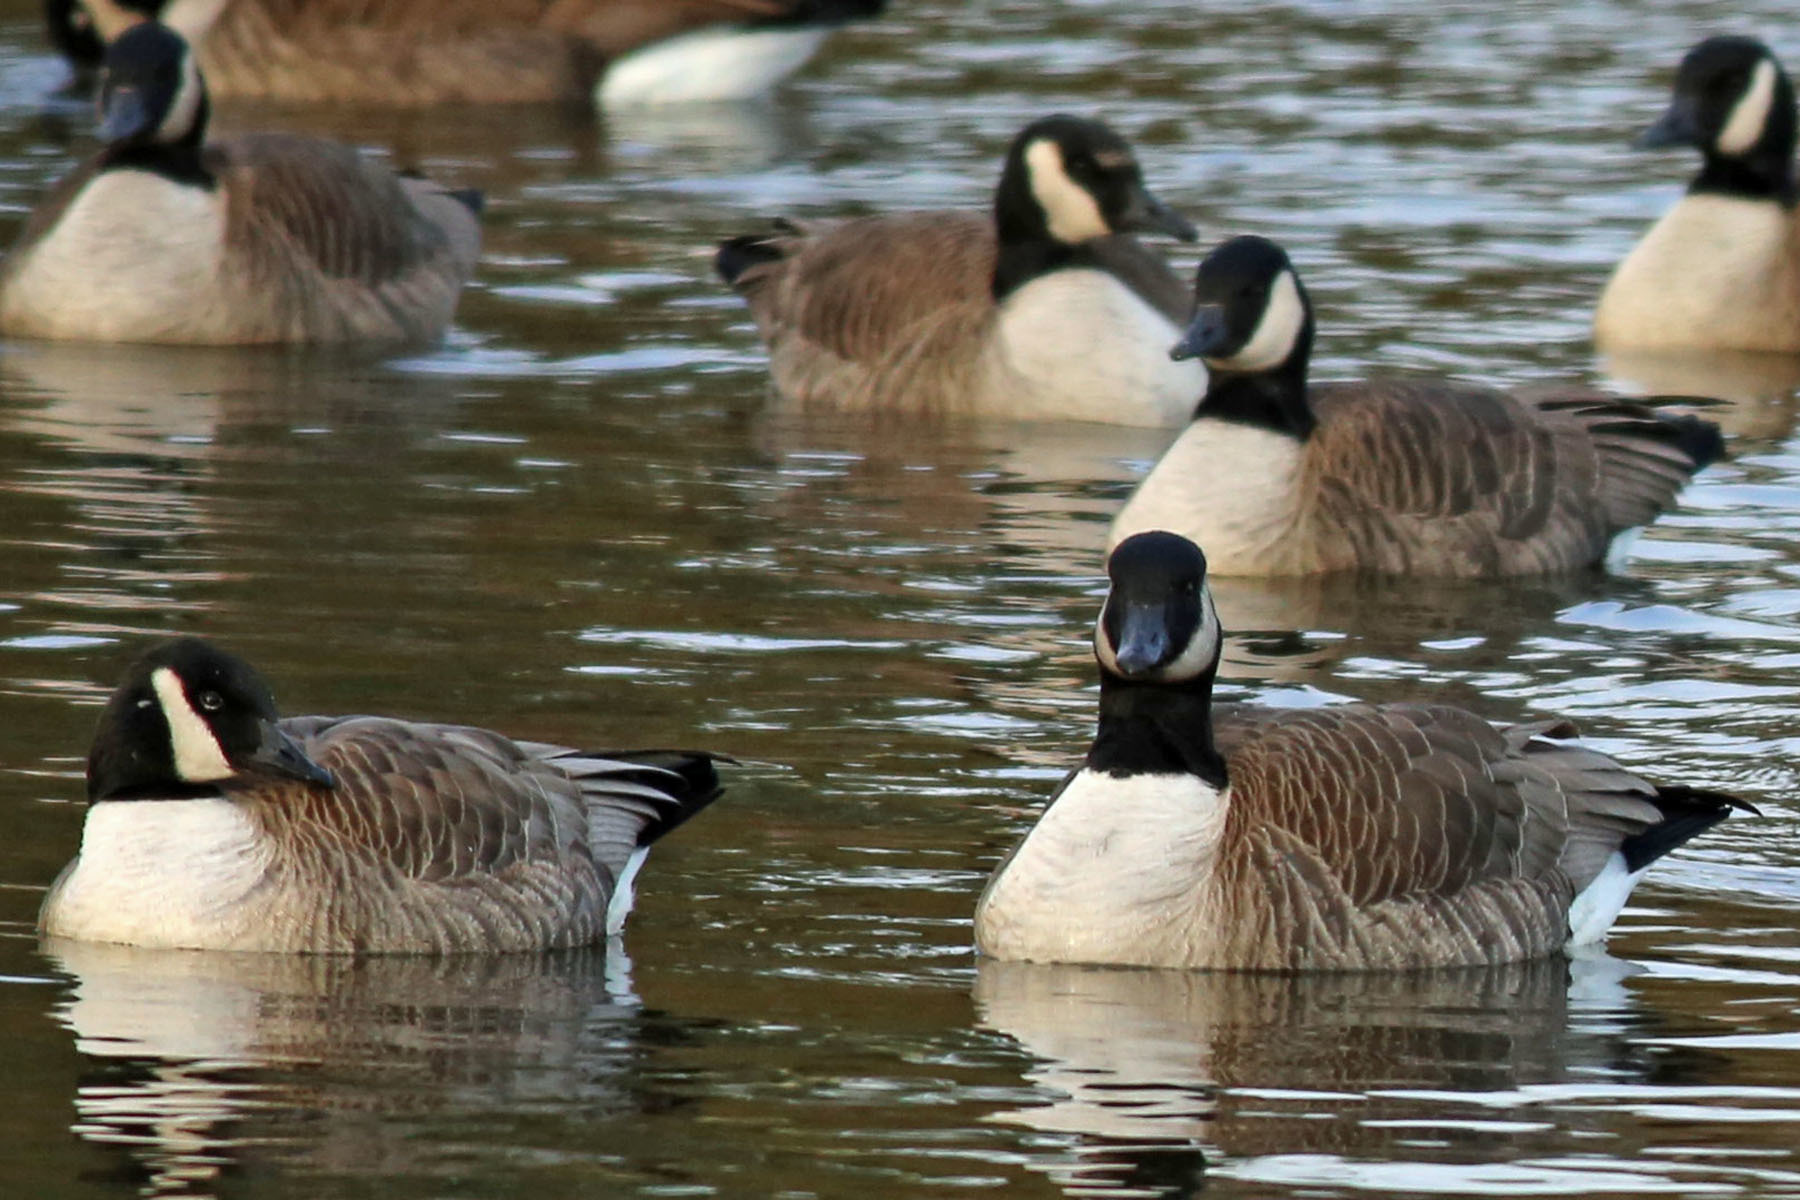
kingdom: Animalia
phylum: Chordata
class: Aves
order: Anseriformes
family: Anatidae
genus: Branta
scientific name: Branta canadensis
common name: Canada goose
